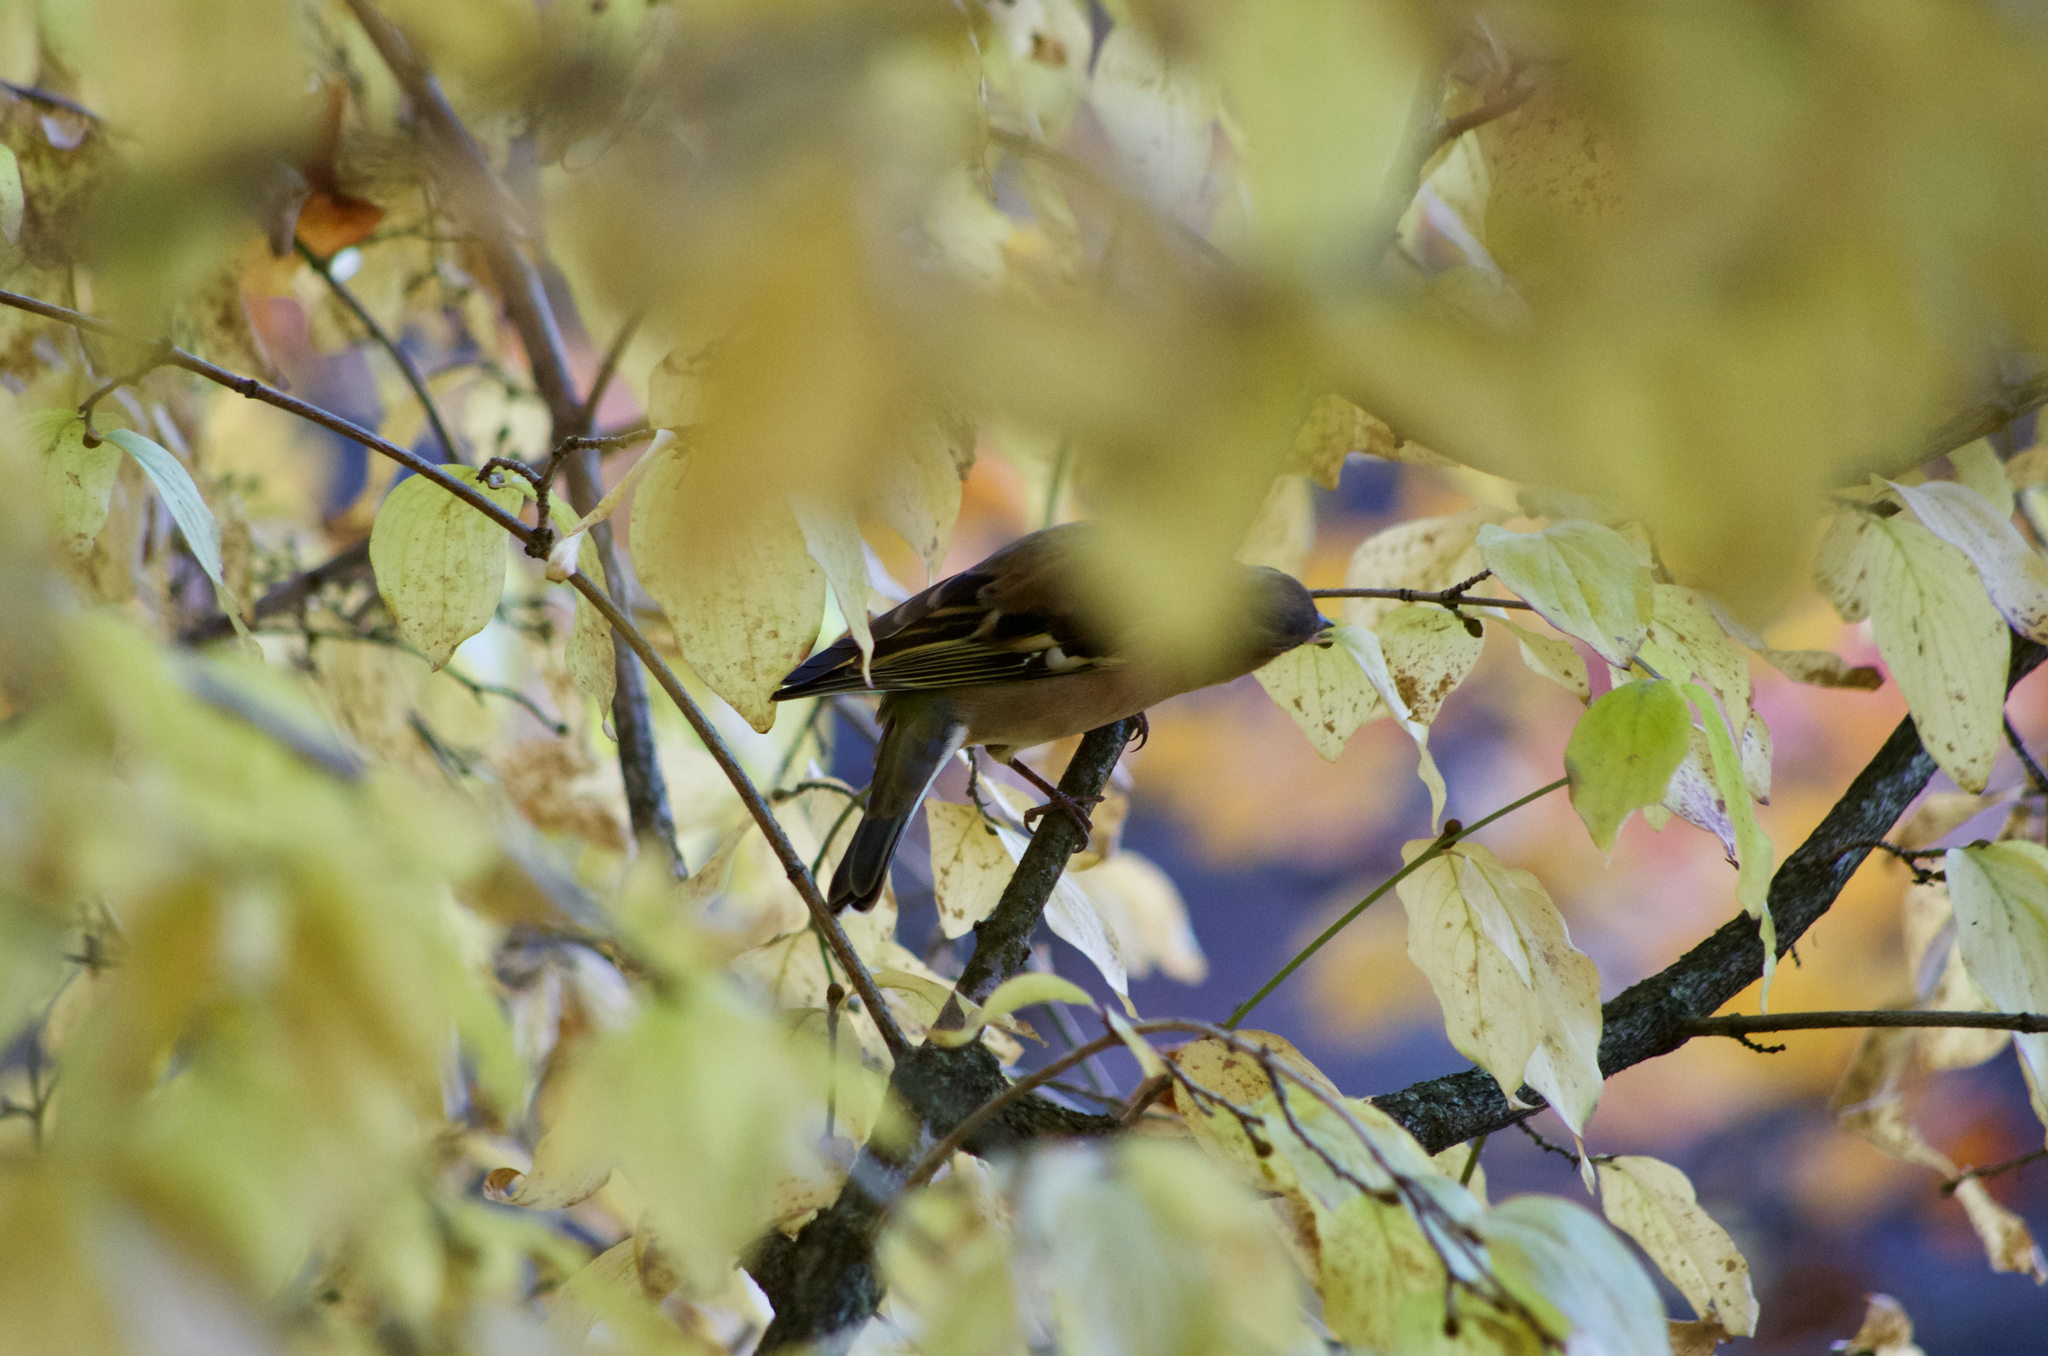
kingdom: Animalia
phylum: Chordata
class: Aves
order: Passeriformes
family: Fringillidae
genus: Fringilla
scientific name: Fringilla coelebs
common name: Common chaffinch
